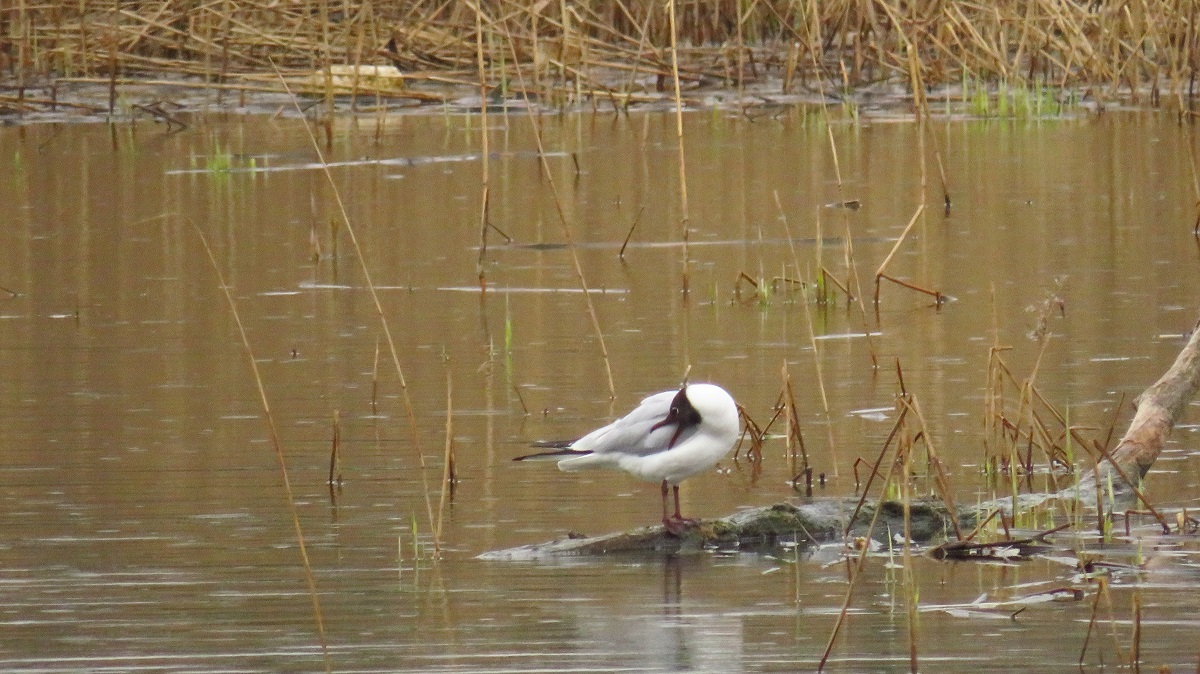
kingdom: Animalia
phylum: Chordata
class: Aves
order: Charadriiformes
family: Laridae
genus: Chroicocephalus
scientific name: Chroicocephalus ridibundus
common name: Black-headed gull
